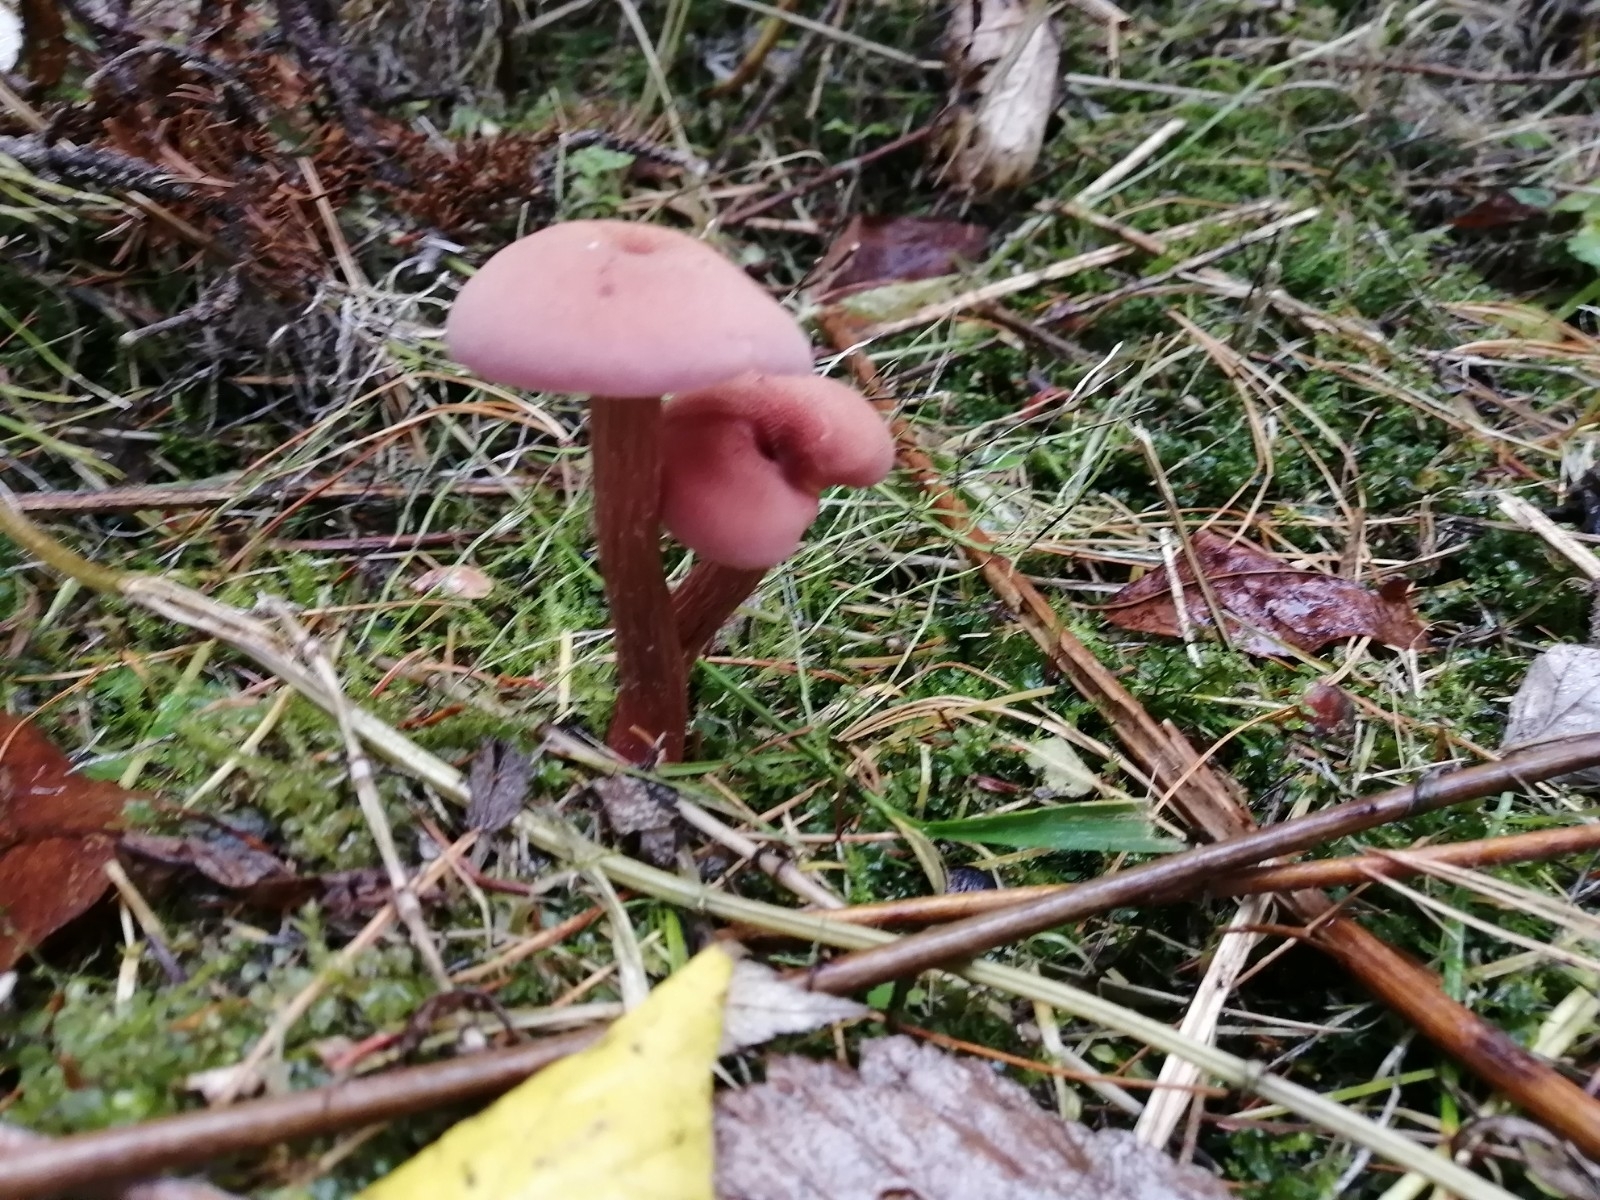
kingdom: Fungi
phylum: Basidiomycota
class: Agaricomycetes
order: Agaricales
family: Hydnangiaceae
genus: Laccaria
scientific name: Laccaria bicolor
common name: Bicoloured deceiver
